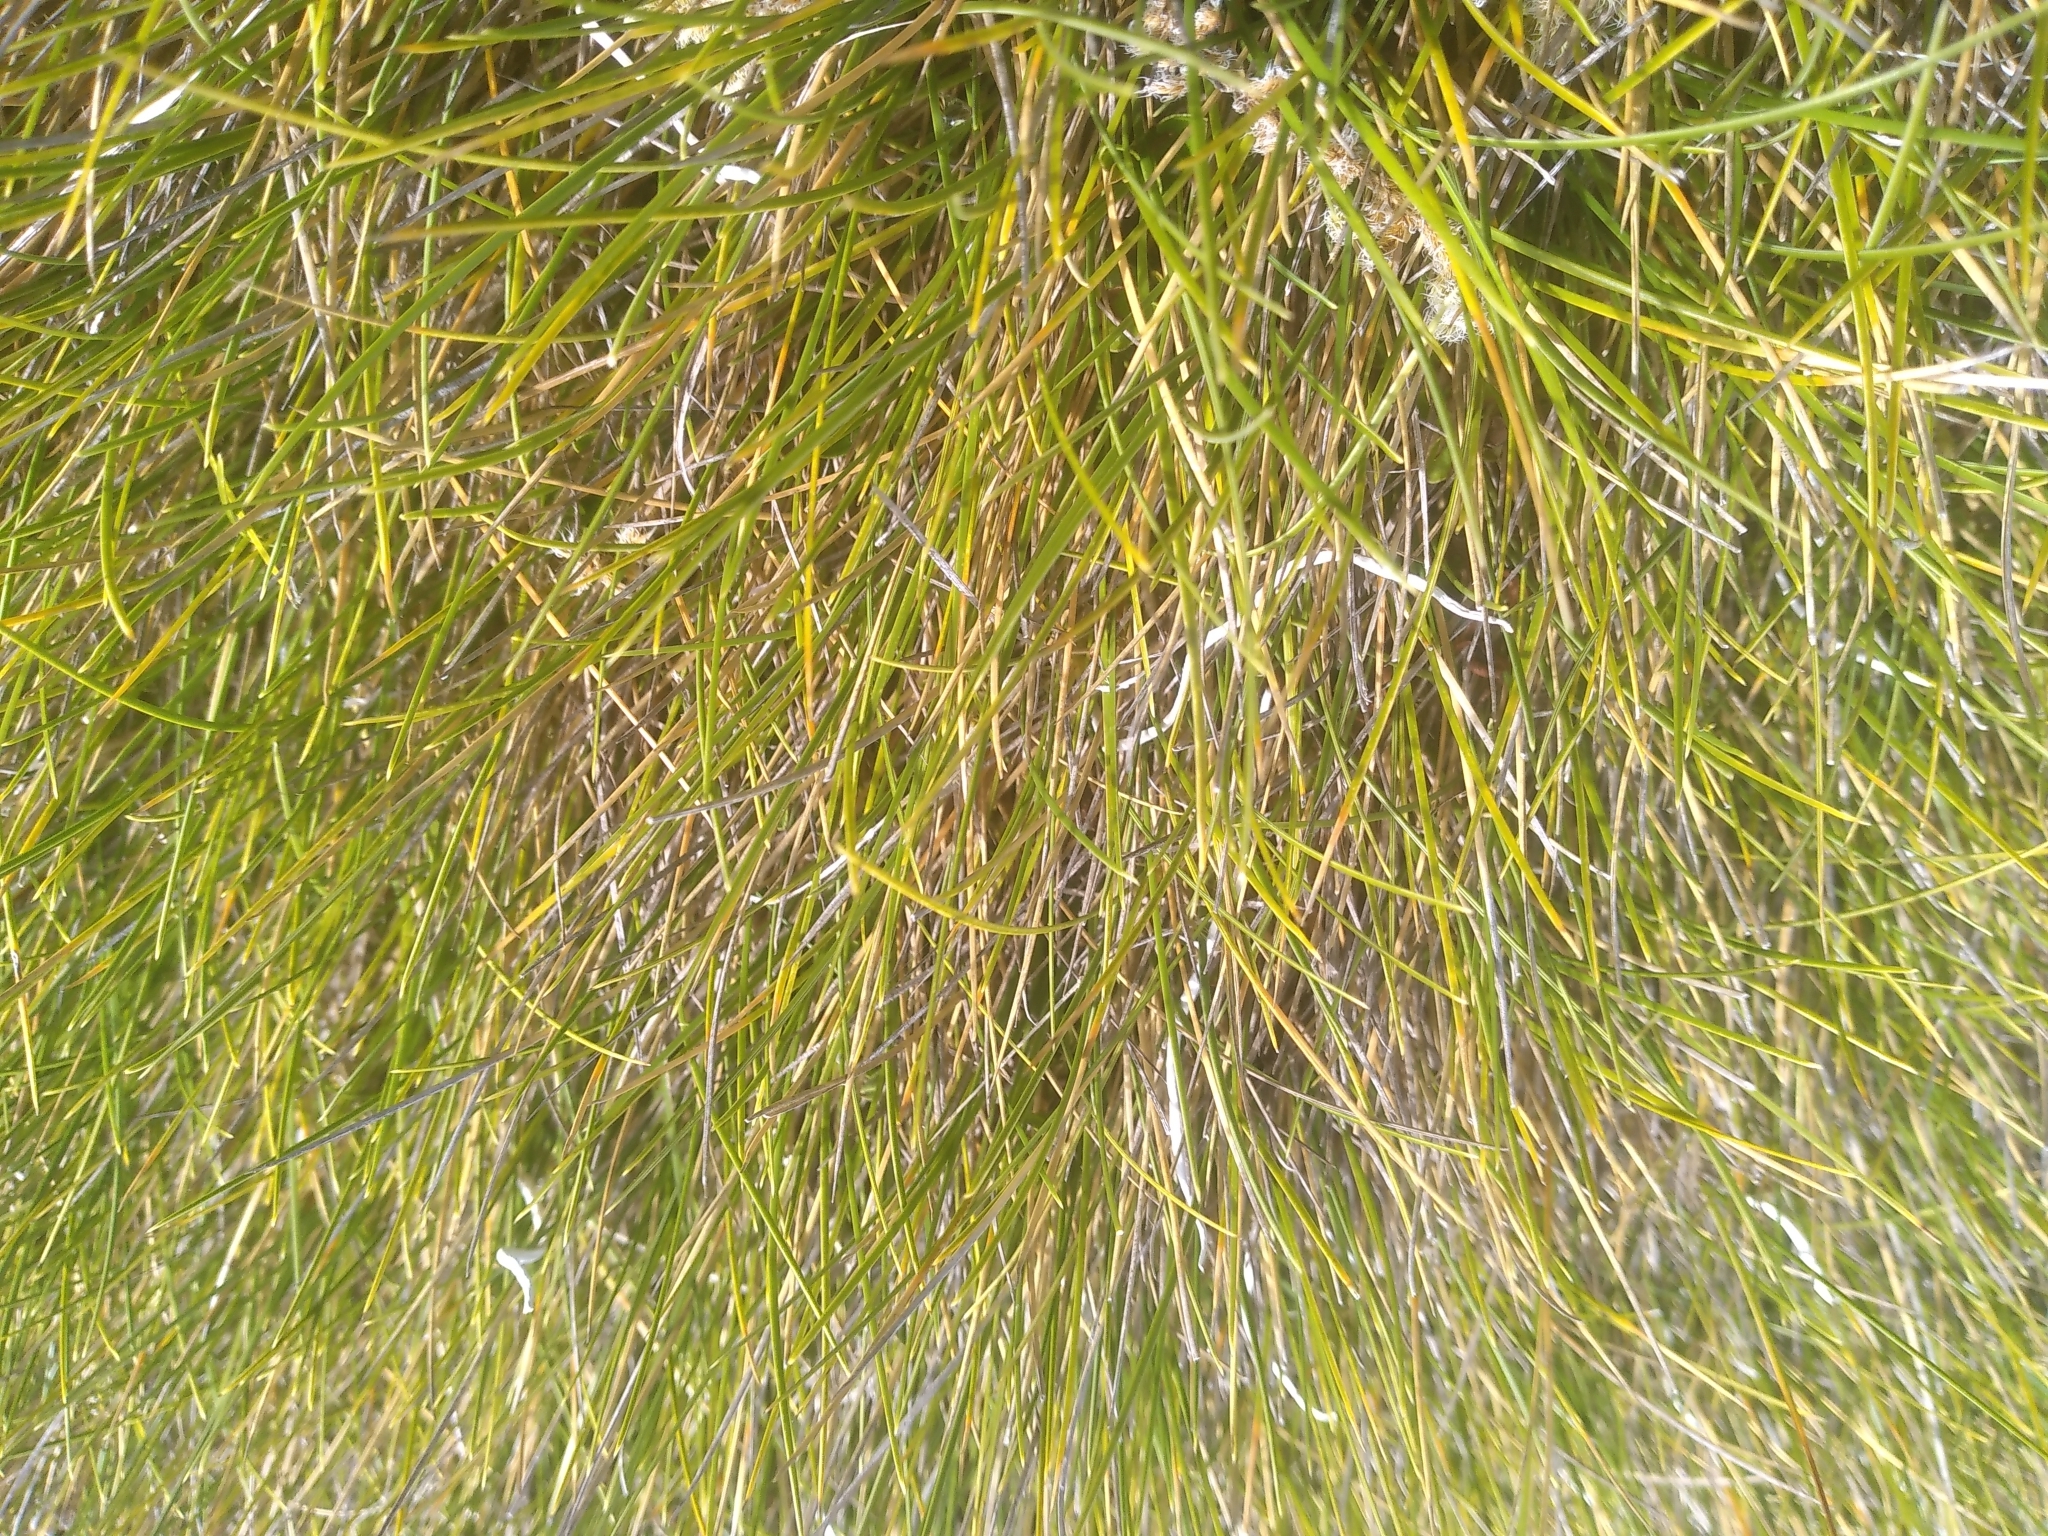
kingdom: Plantae
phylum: Tracheophyta
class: Liliopsida
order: Poales
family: Poaceae
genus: Chionochloa
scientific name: Chionochloa australis
